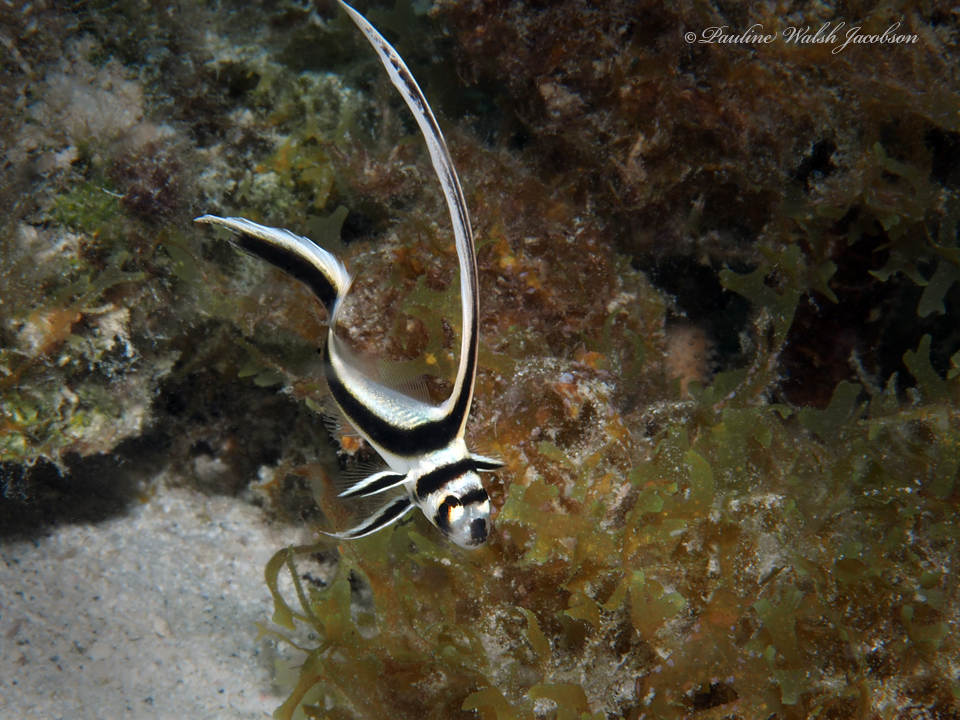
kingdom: Animalia
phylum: Chordata
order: Perciformes
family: Sciaenidae
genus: Equetus
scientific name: Equetus punctatus
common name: Spotted drum
